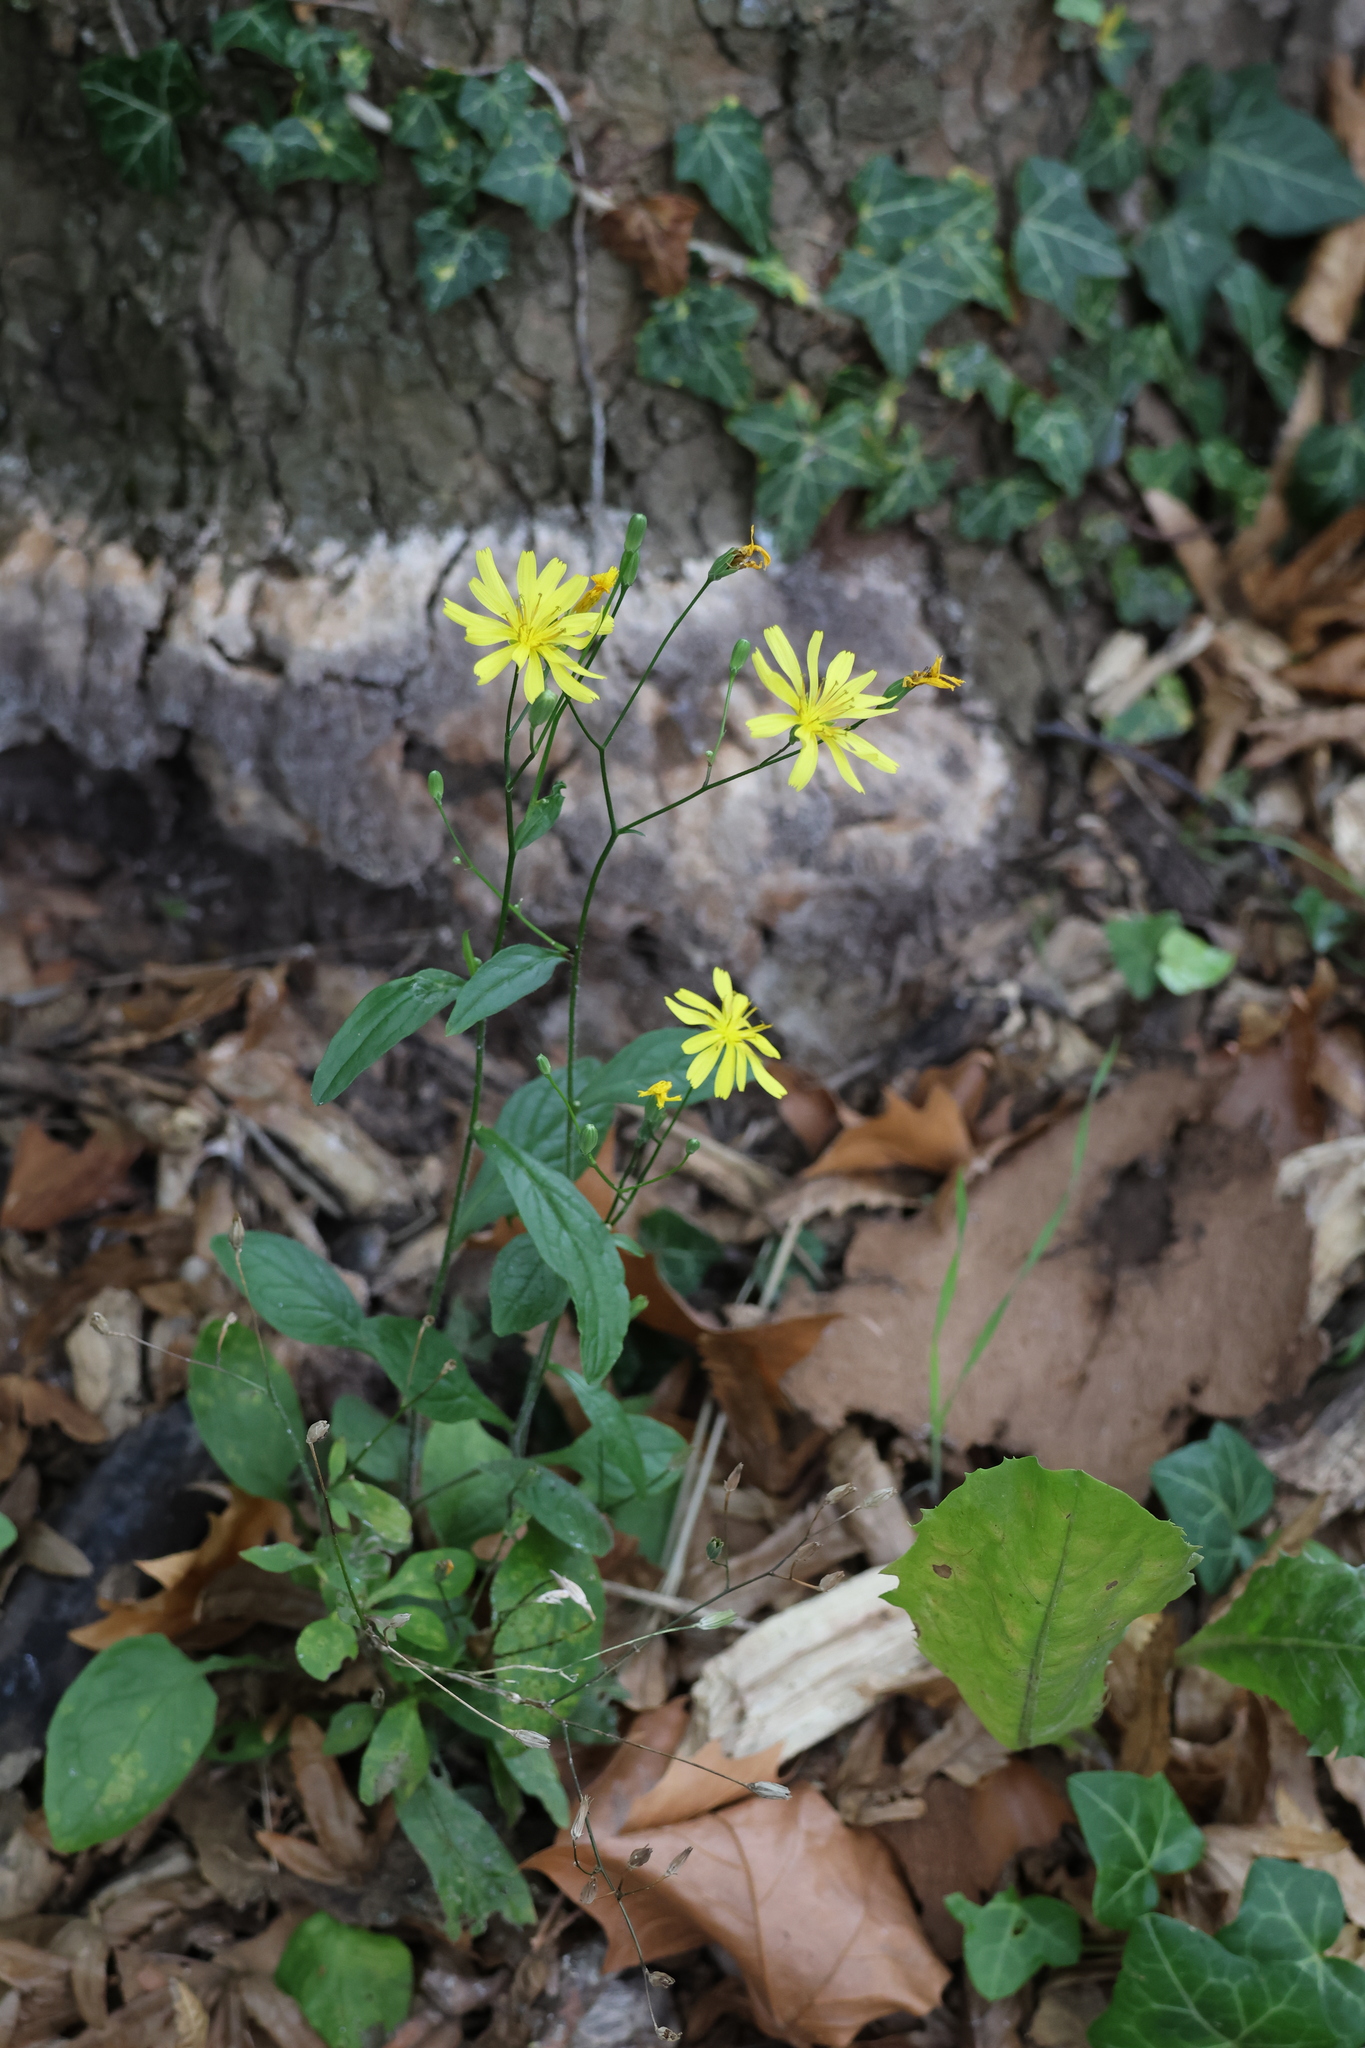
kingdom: Plantae
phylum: Tracheophyta
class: Magnoliopsida
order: Asterales
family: Asteraceae
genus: Lapsana
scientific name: Lapsana communis
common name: Nipplewort
